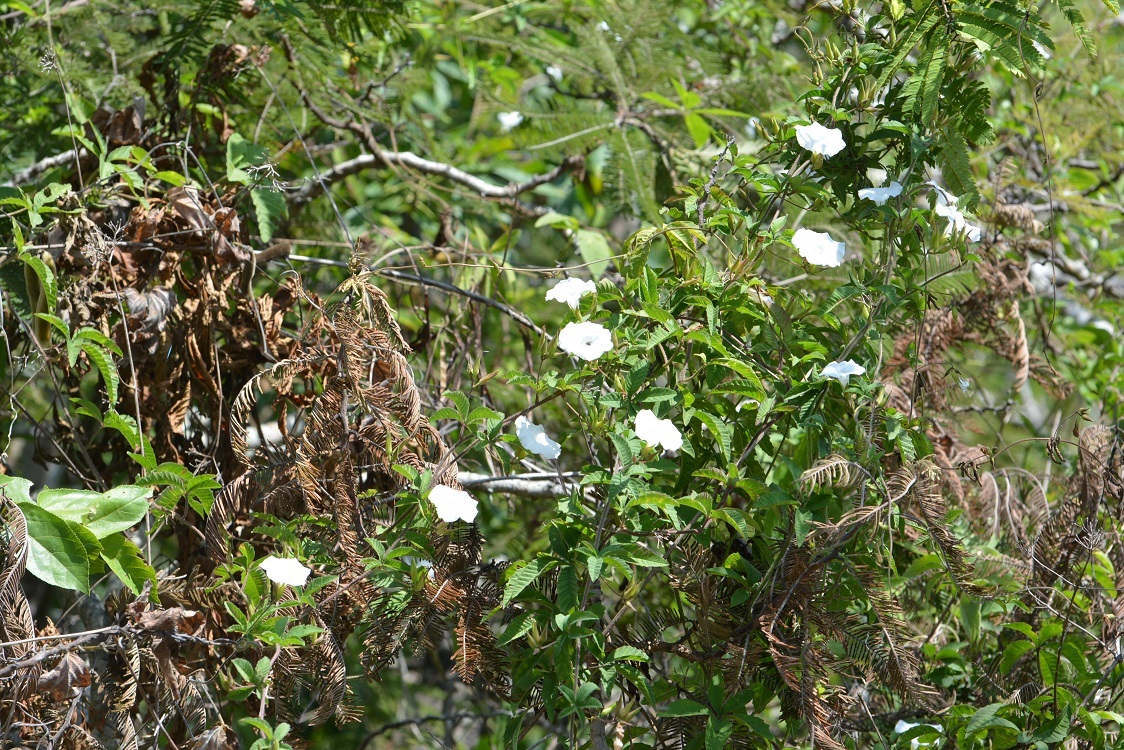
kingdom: Plantae
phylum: Tracheophyta
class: Magnoliopsida
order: Solanales
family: Convolvulaceae
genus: Distimake
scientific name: Distimake cissoides
